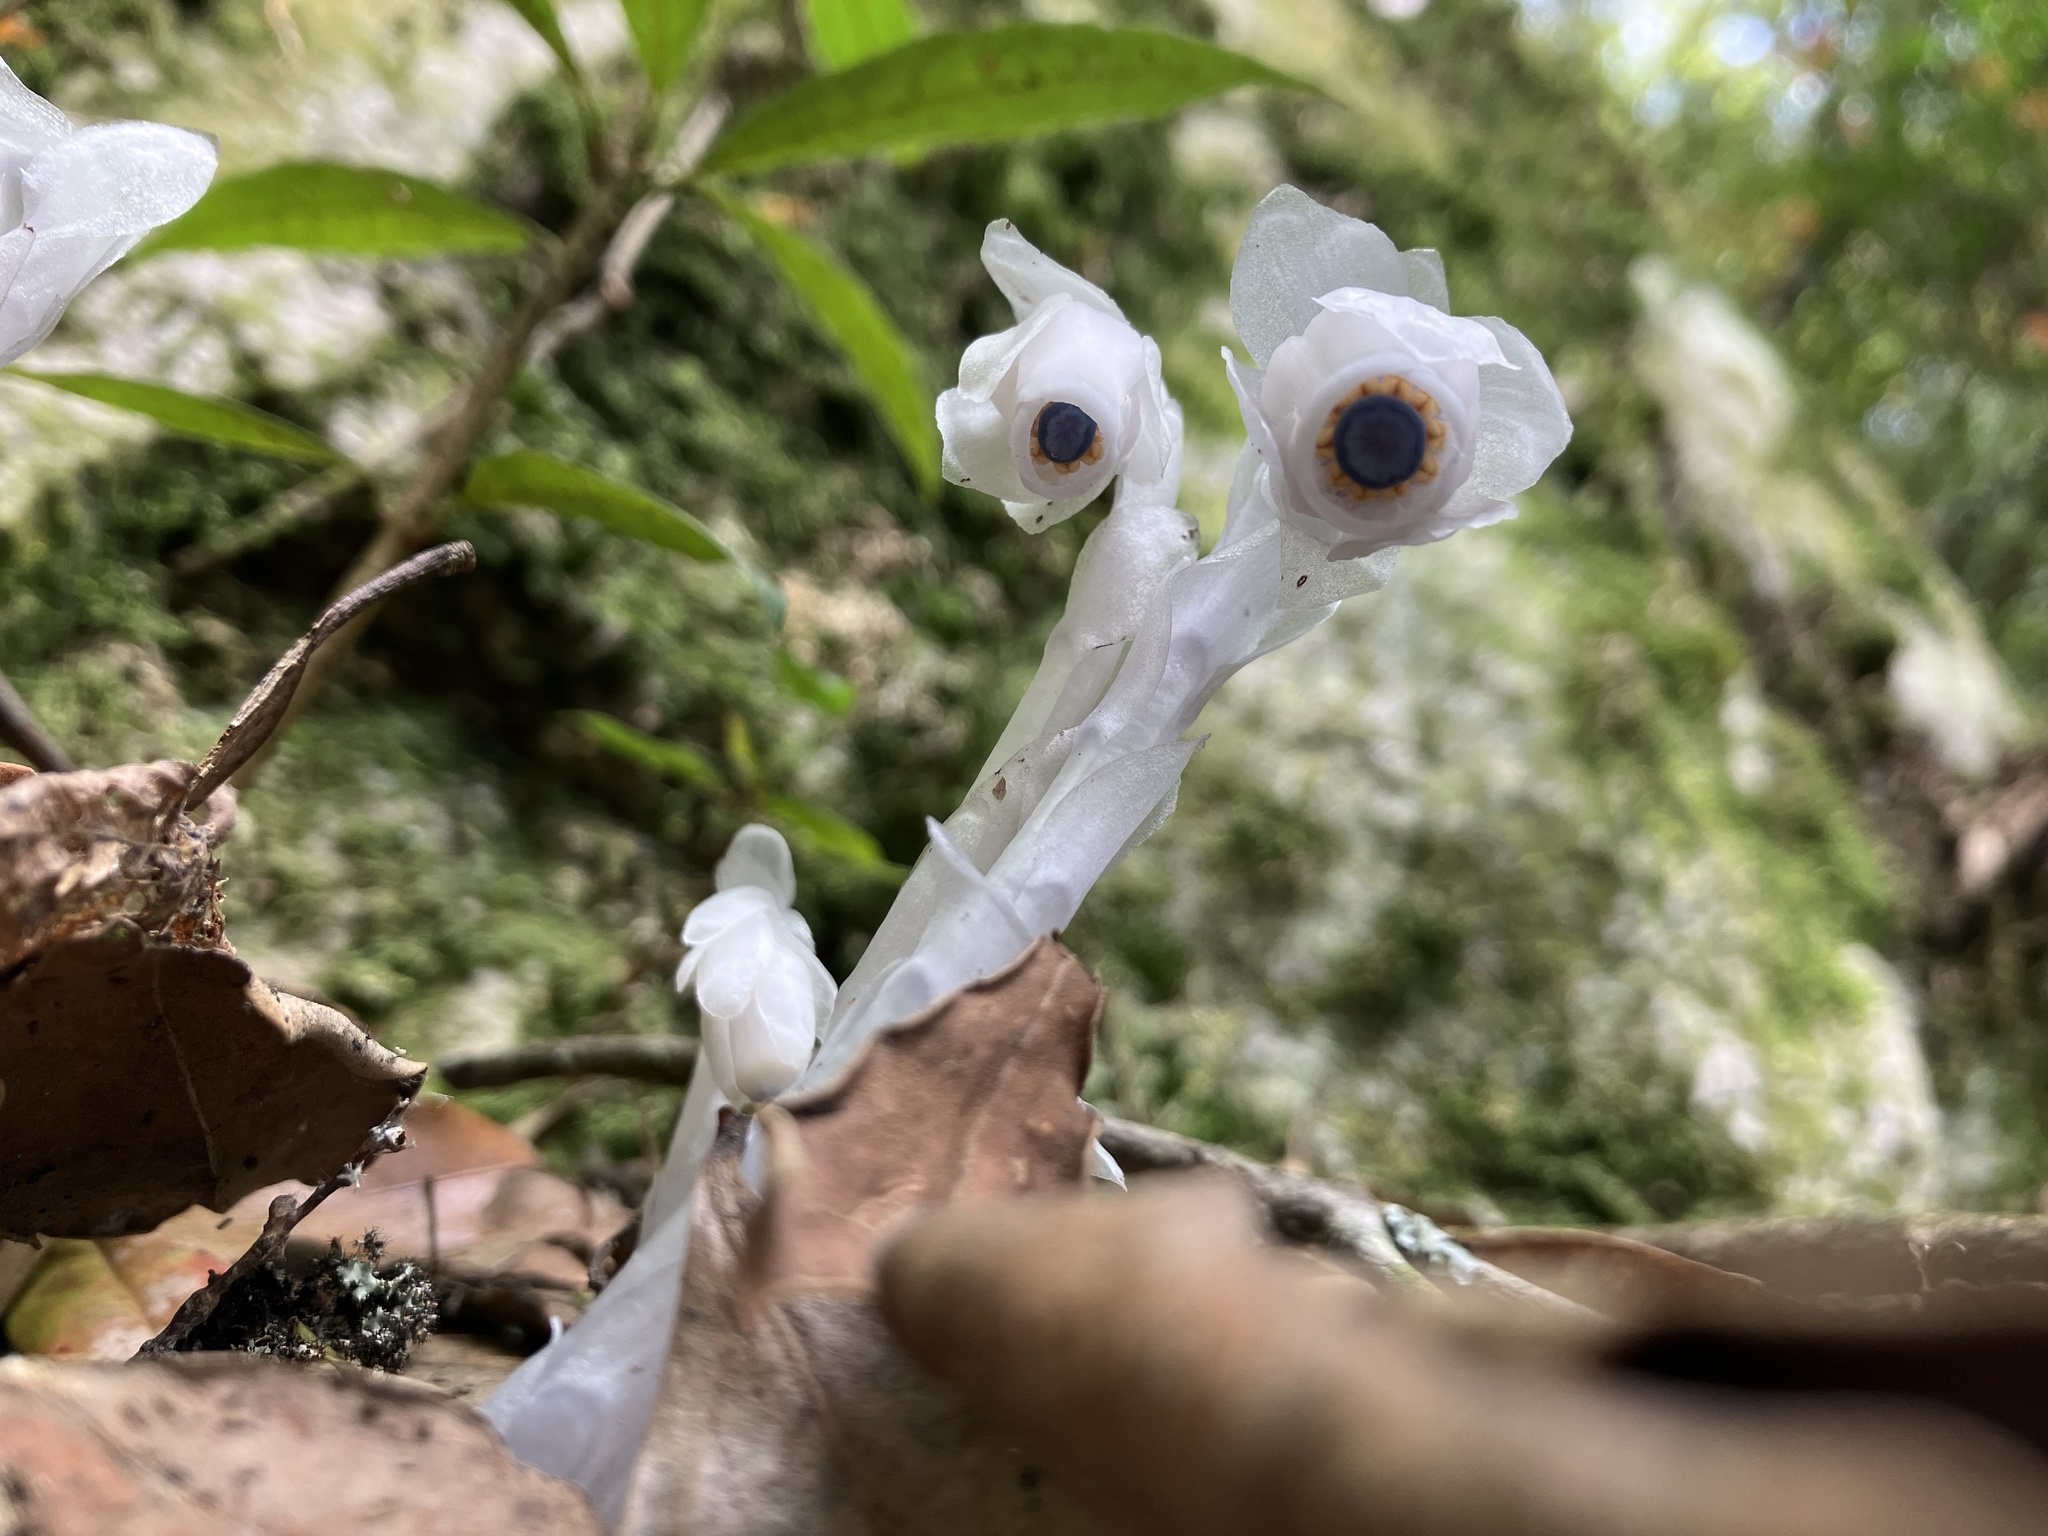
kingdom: Plantae
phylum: Tracheophyta
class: Magnoliopsida
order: Ericales
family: Ericaceae
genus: Monotropastrum
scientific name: Monotropastrum humile
